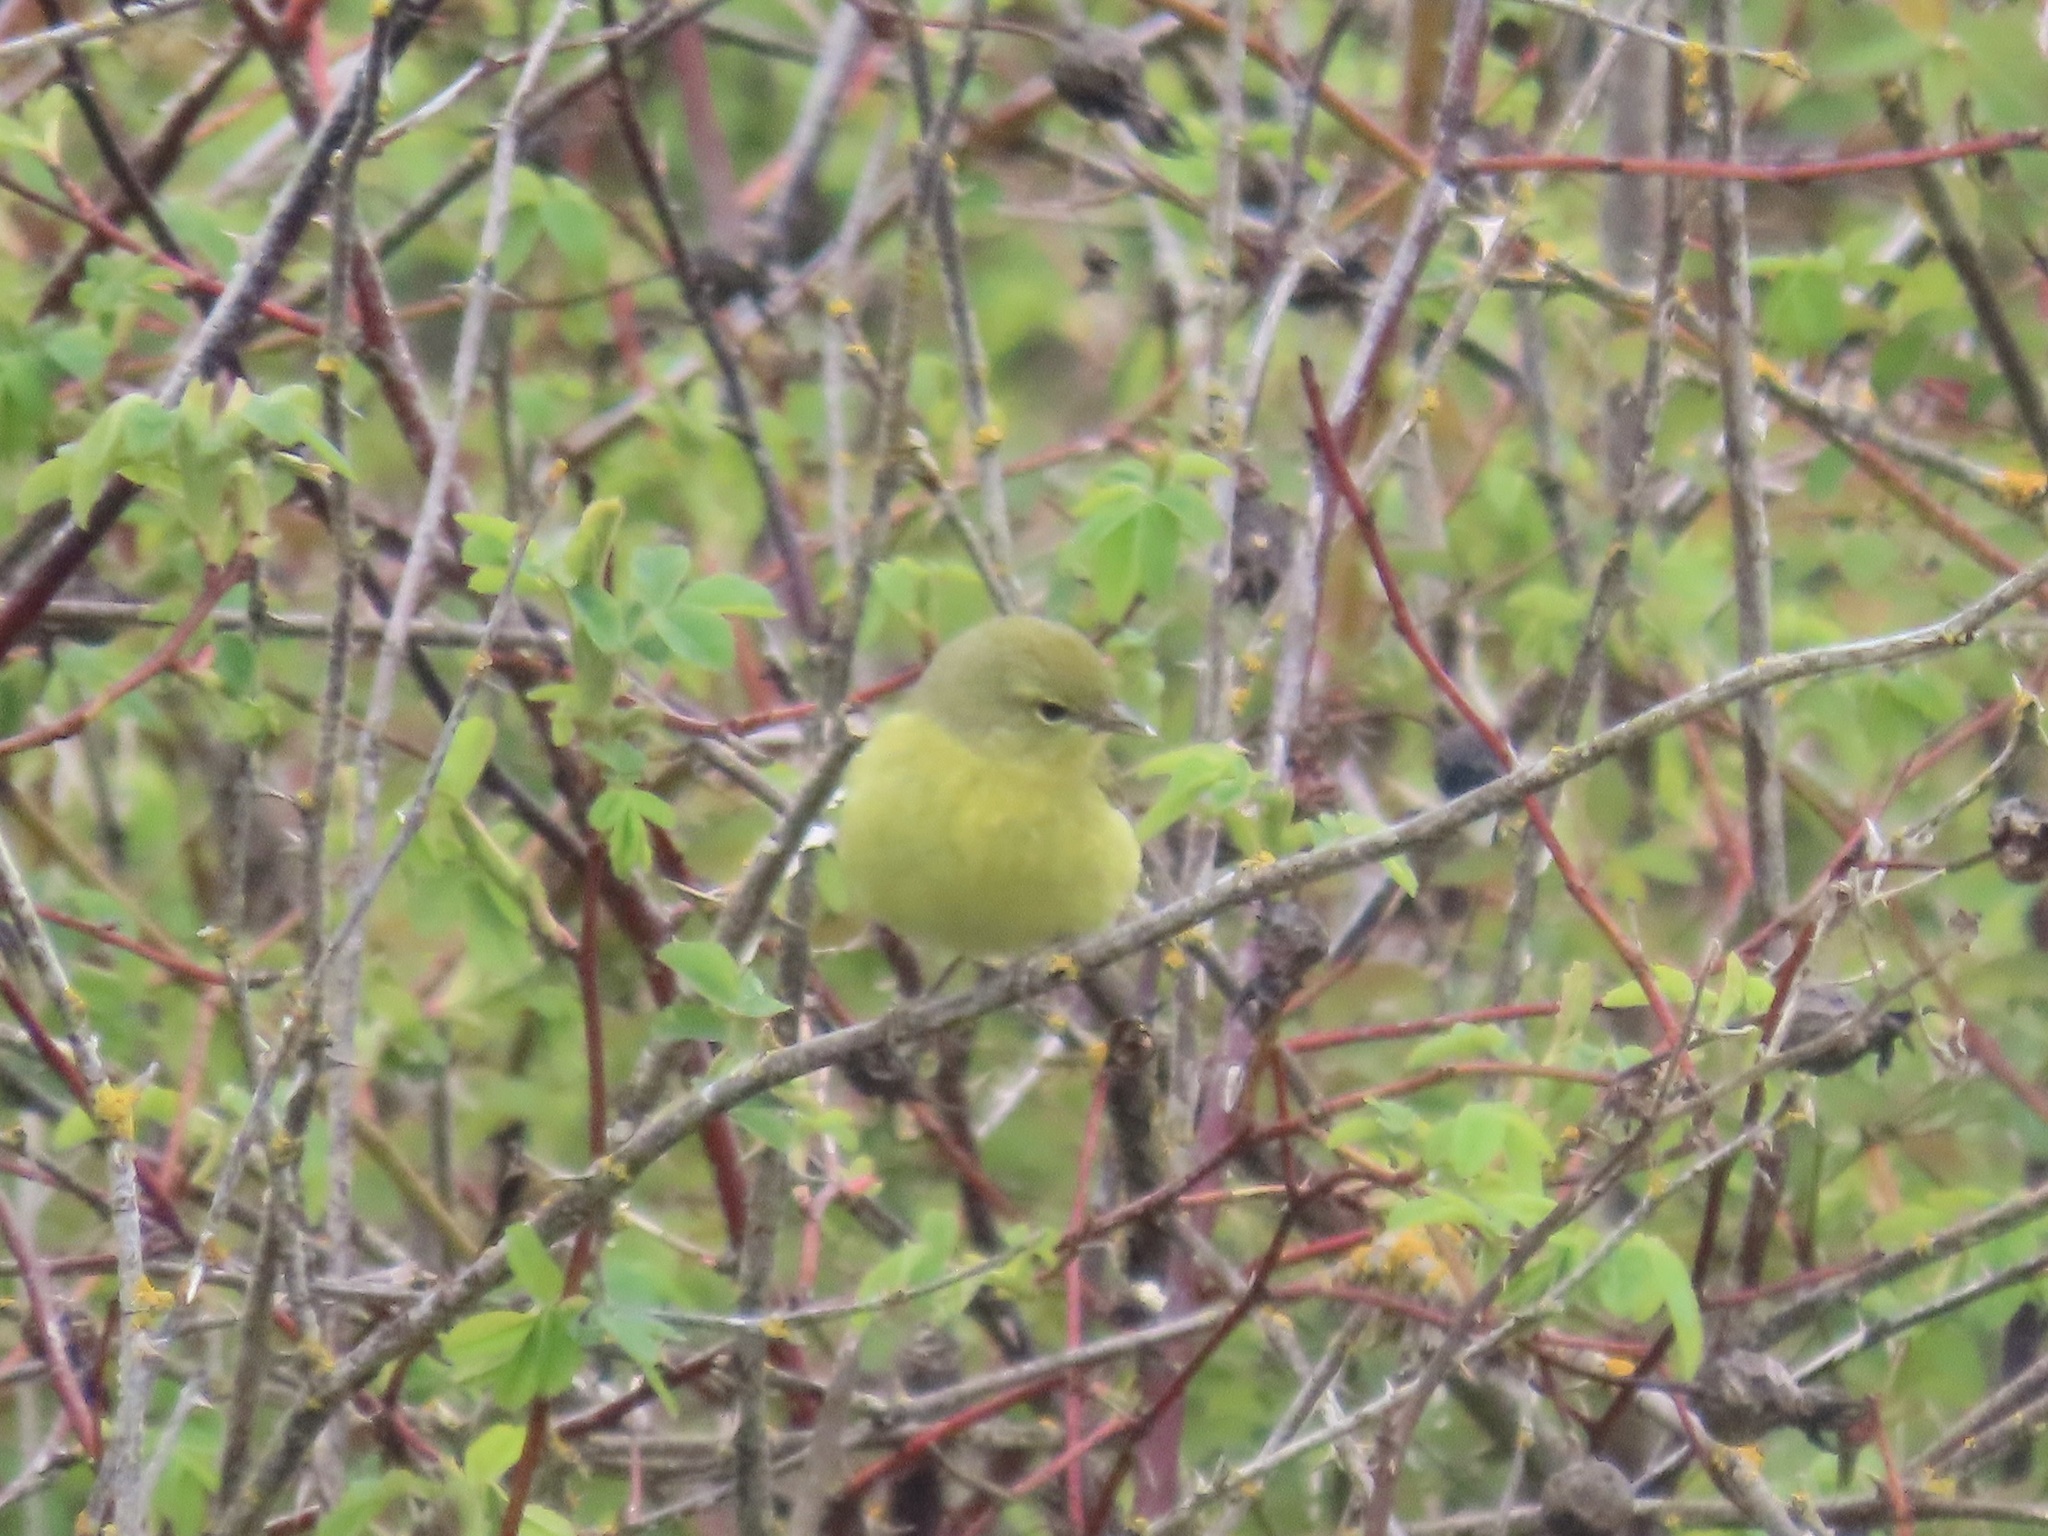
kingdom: Animalia
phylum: Chordata
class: Aves
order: Passeriformes
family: Parulidae
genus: Leiothlypis
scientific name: Leiothlypis celata
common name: Orange-crowned warbler
